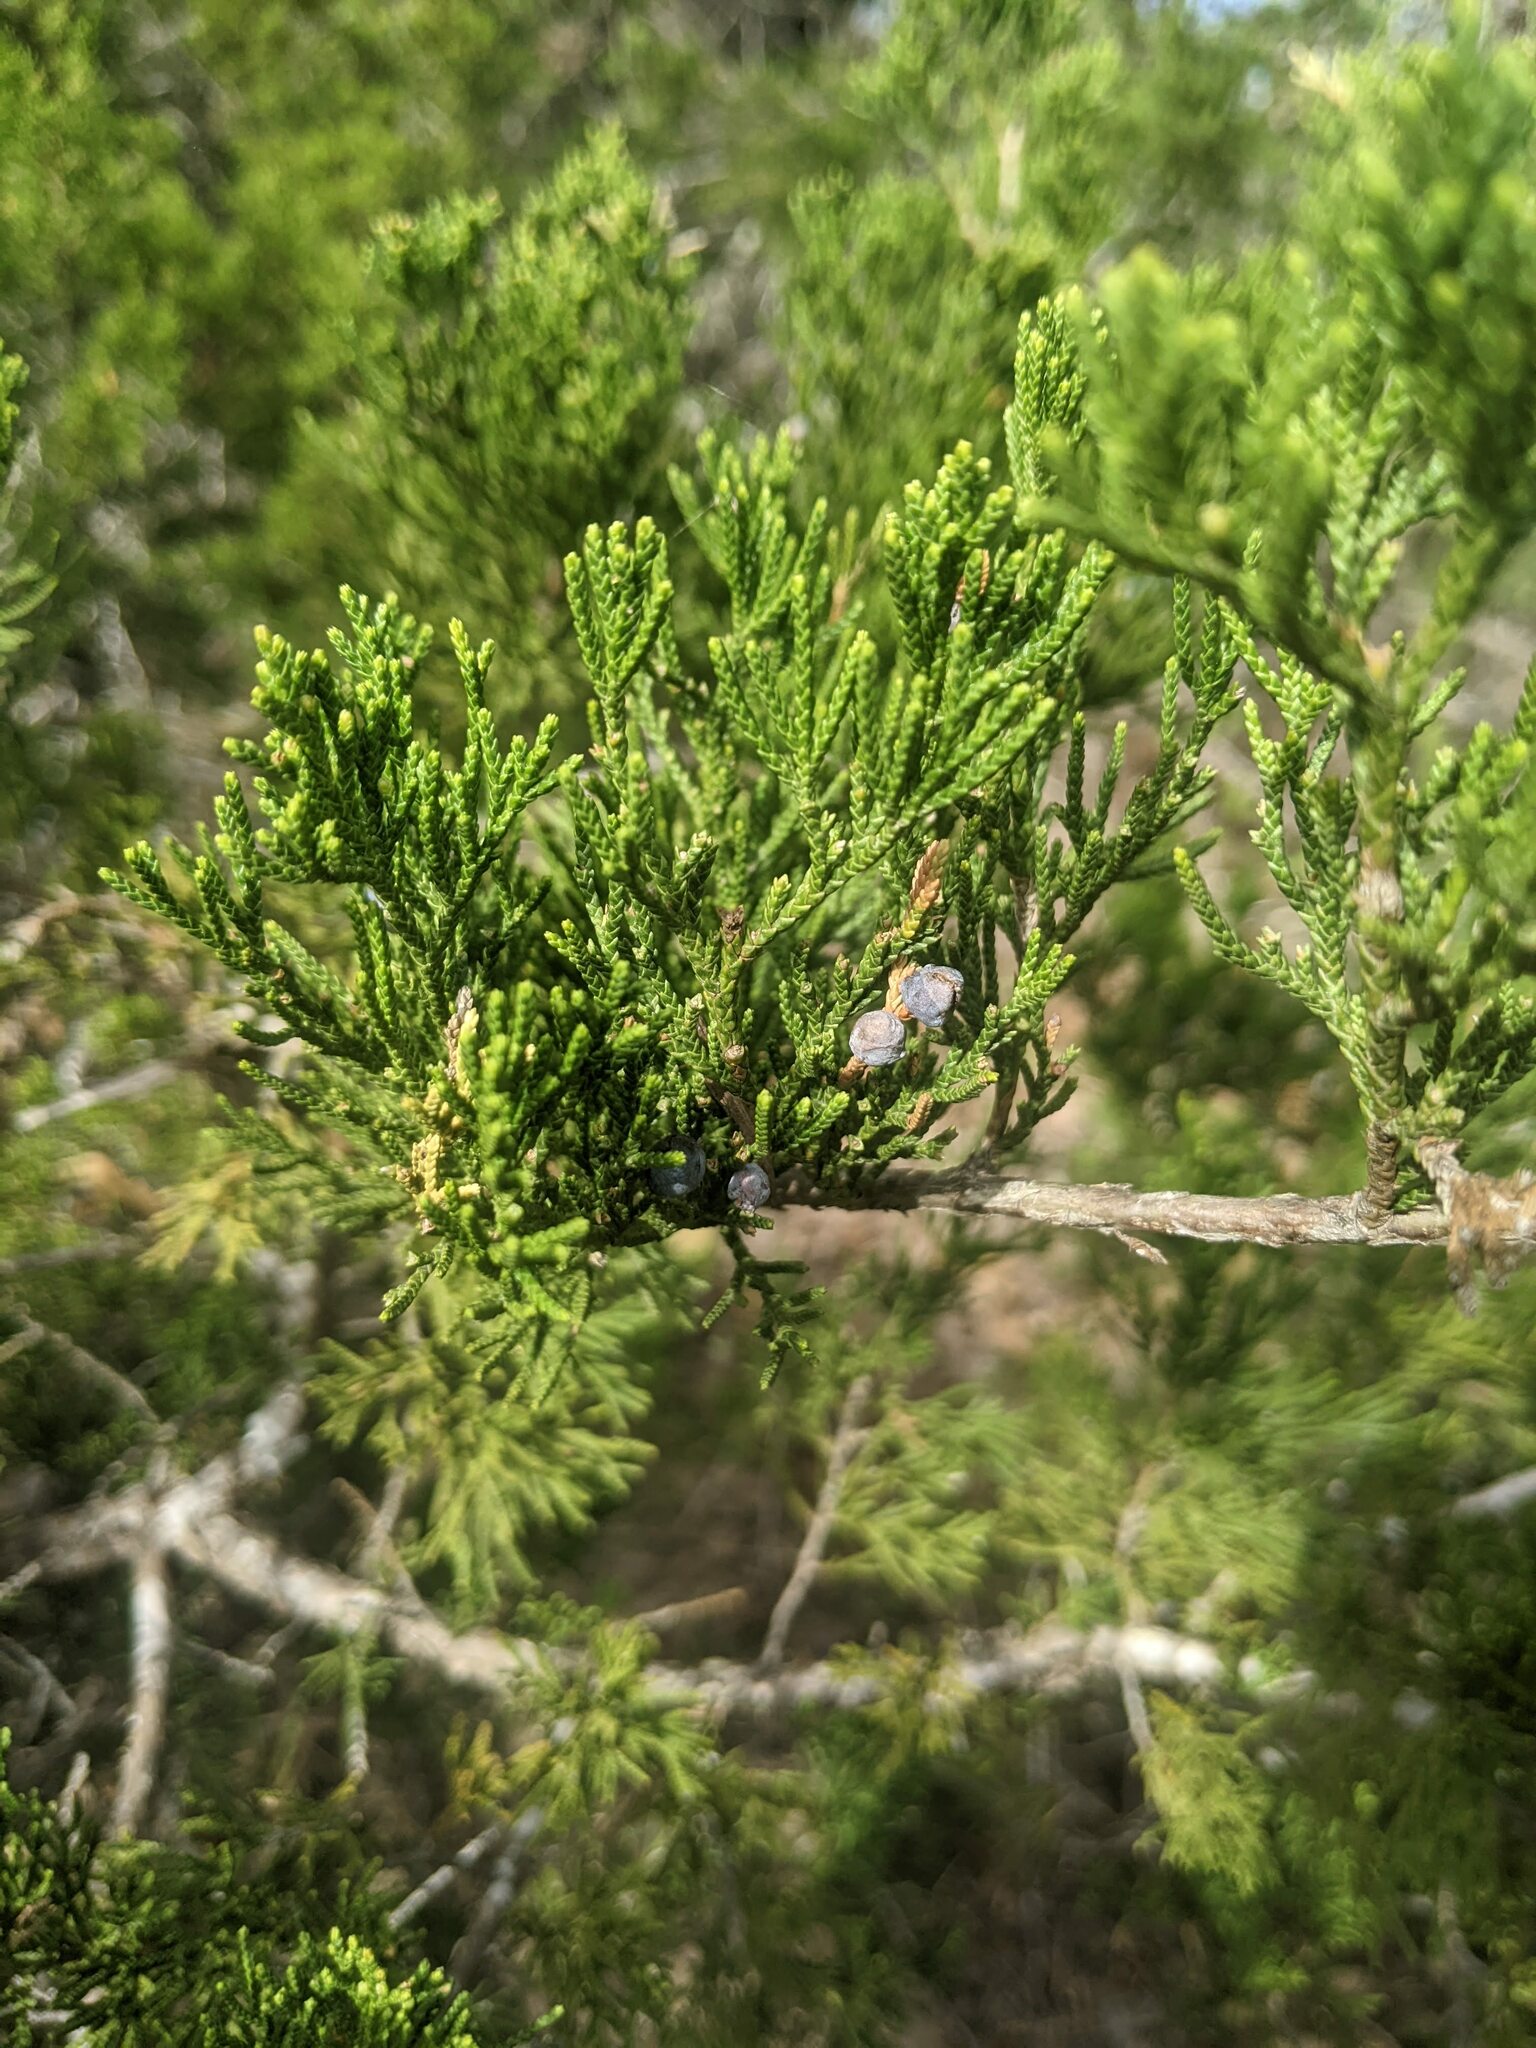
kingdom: Plantae
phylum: Tracheophyta
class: Pinopsida
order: Pinales
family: Cupressaceae
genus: Juniperus
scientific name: Juniperus ashei
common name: Mexican juniper
